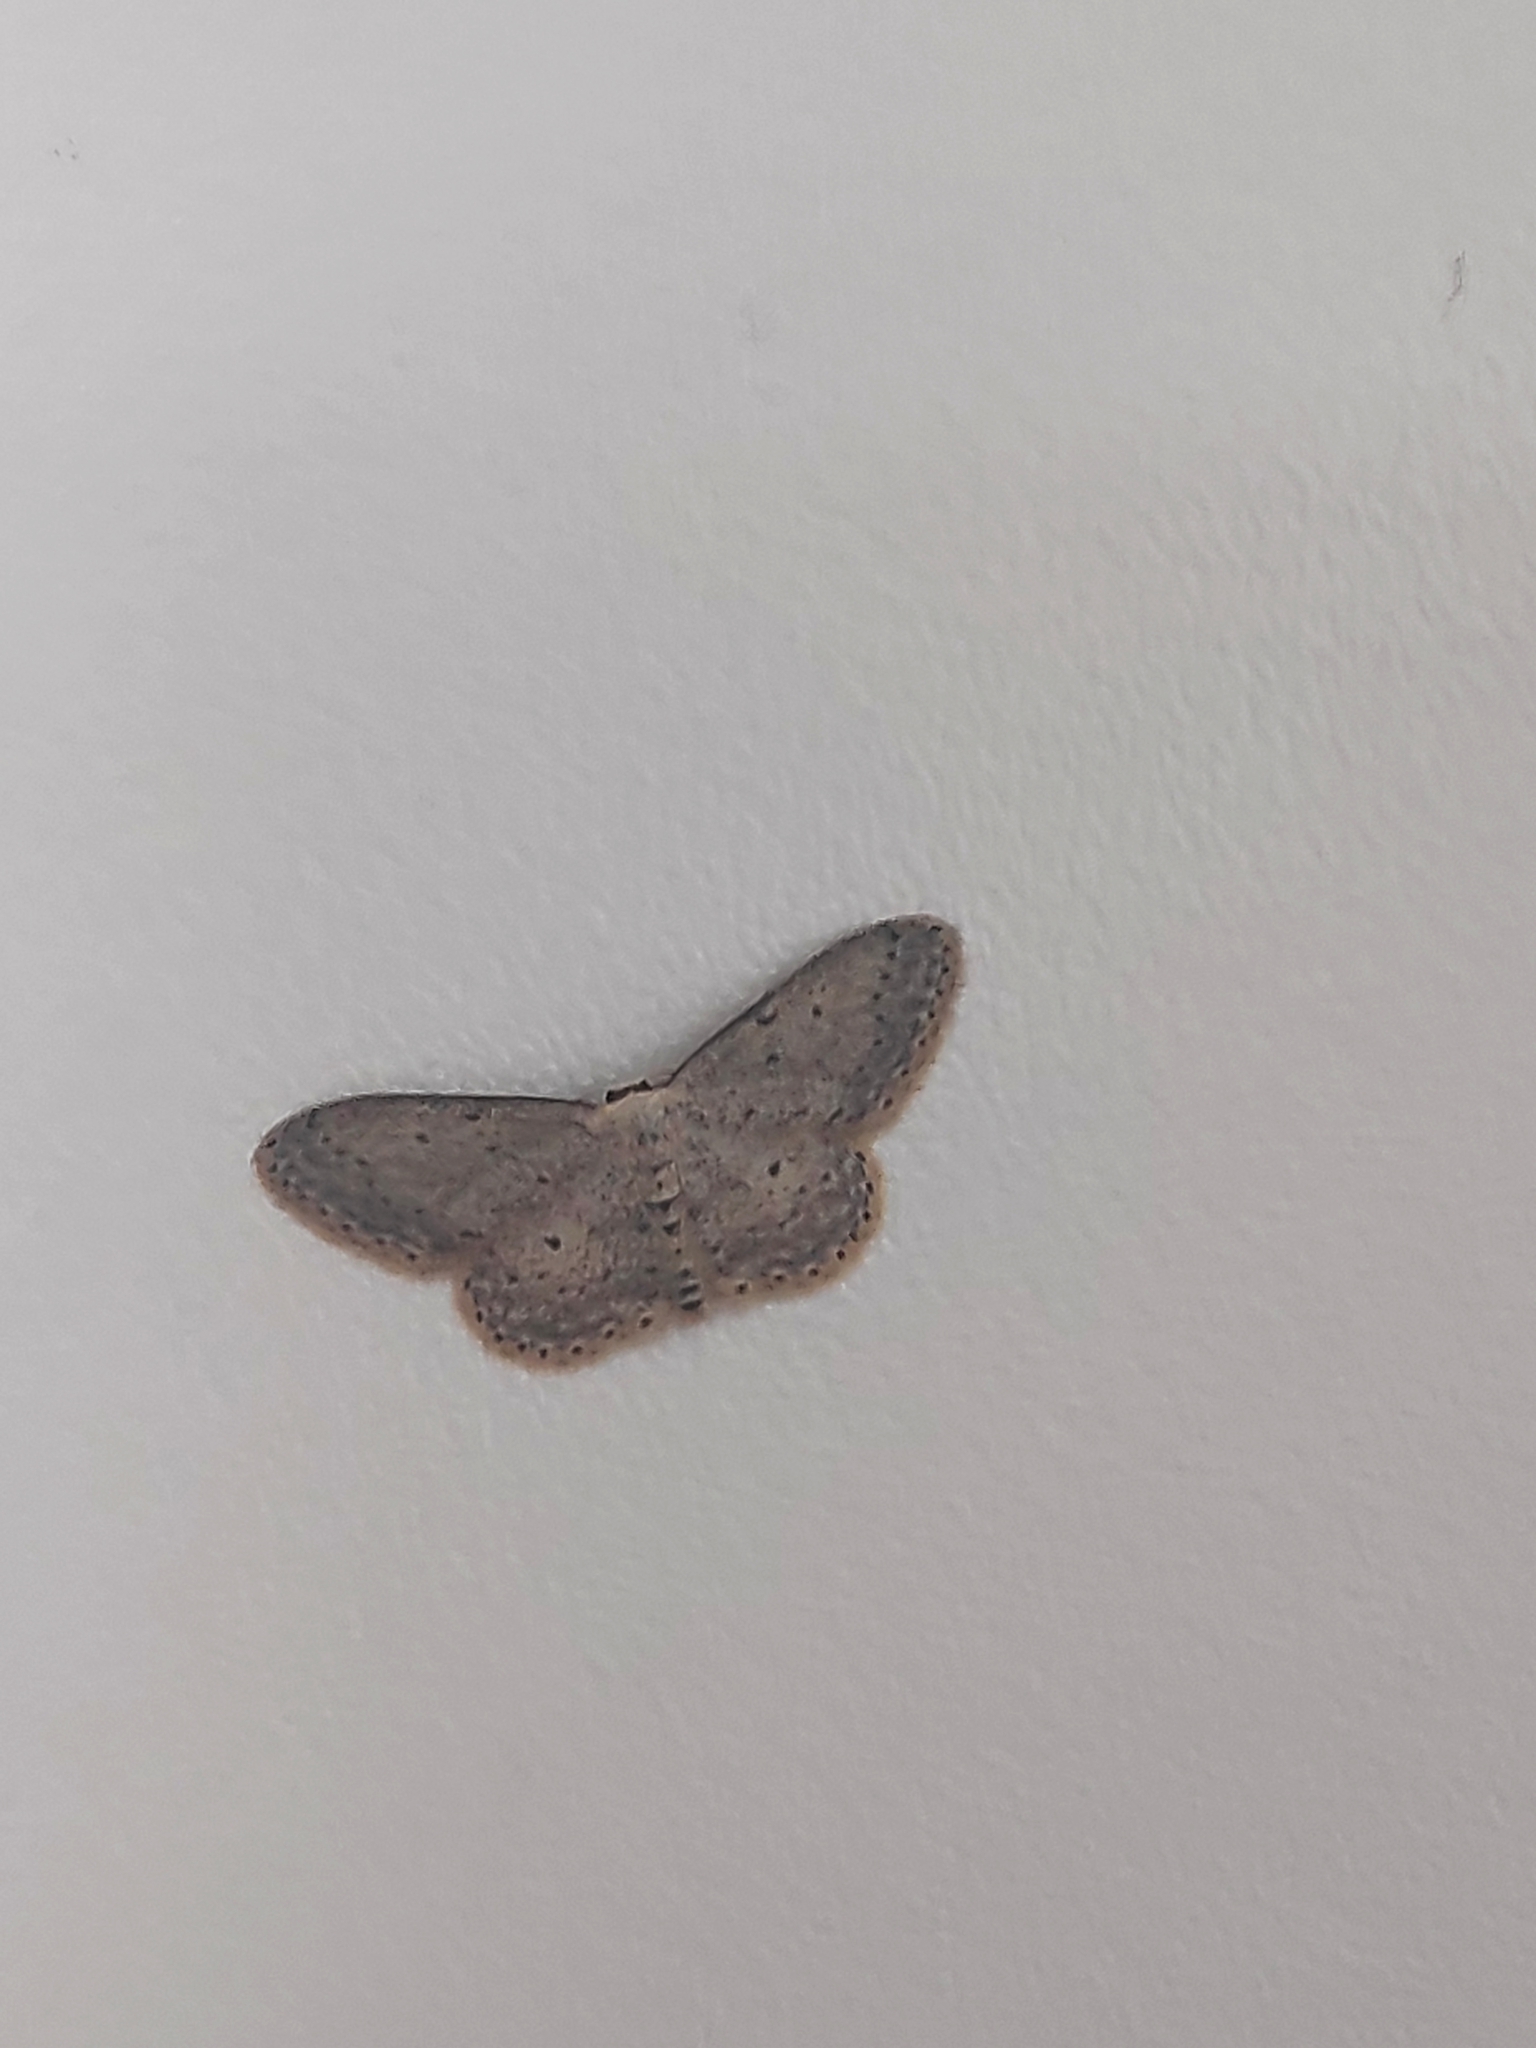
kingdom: Animalia
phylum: Arthropoda
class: Insecta
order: Lepidoptera
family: Geometridae
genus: Idaea
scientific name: Idaea seriata
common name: Small dusty wave
